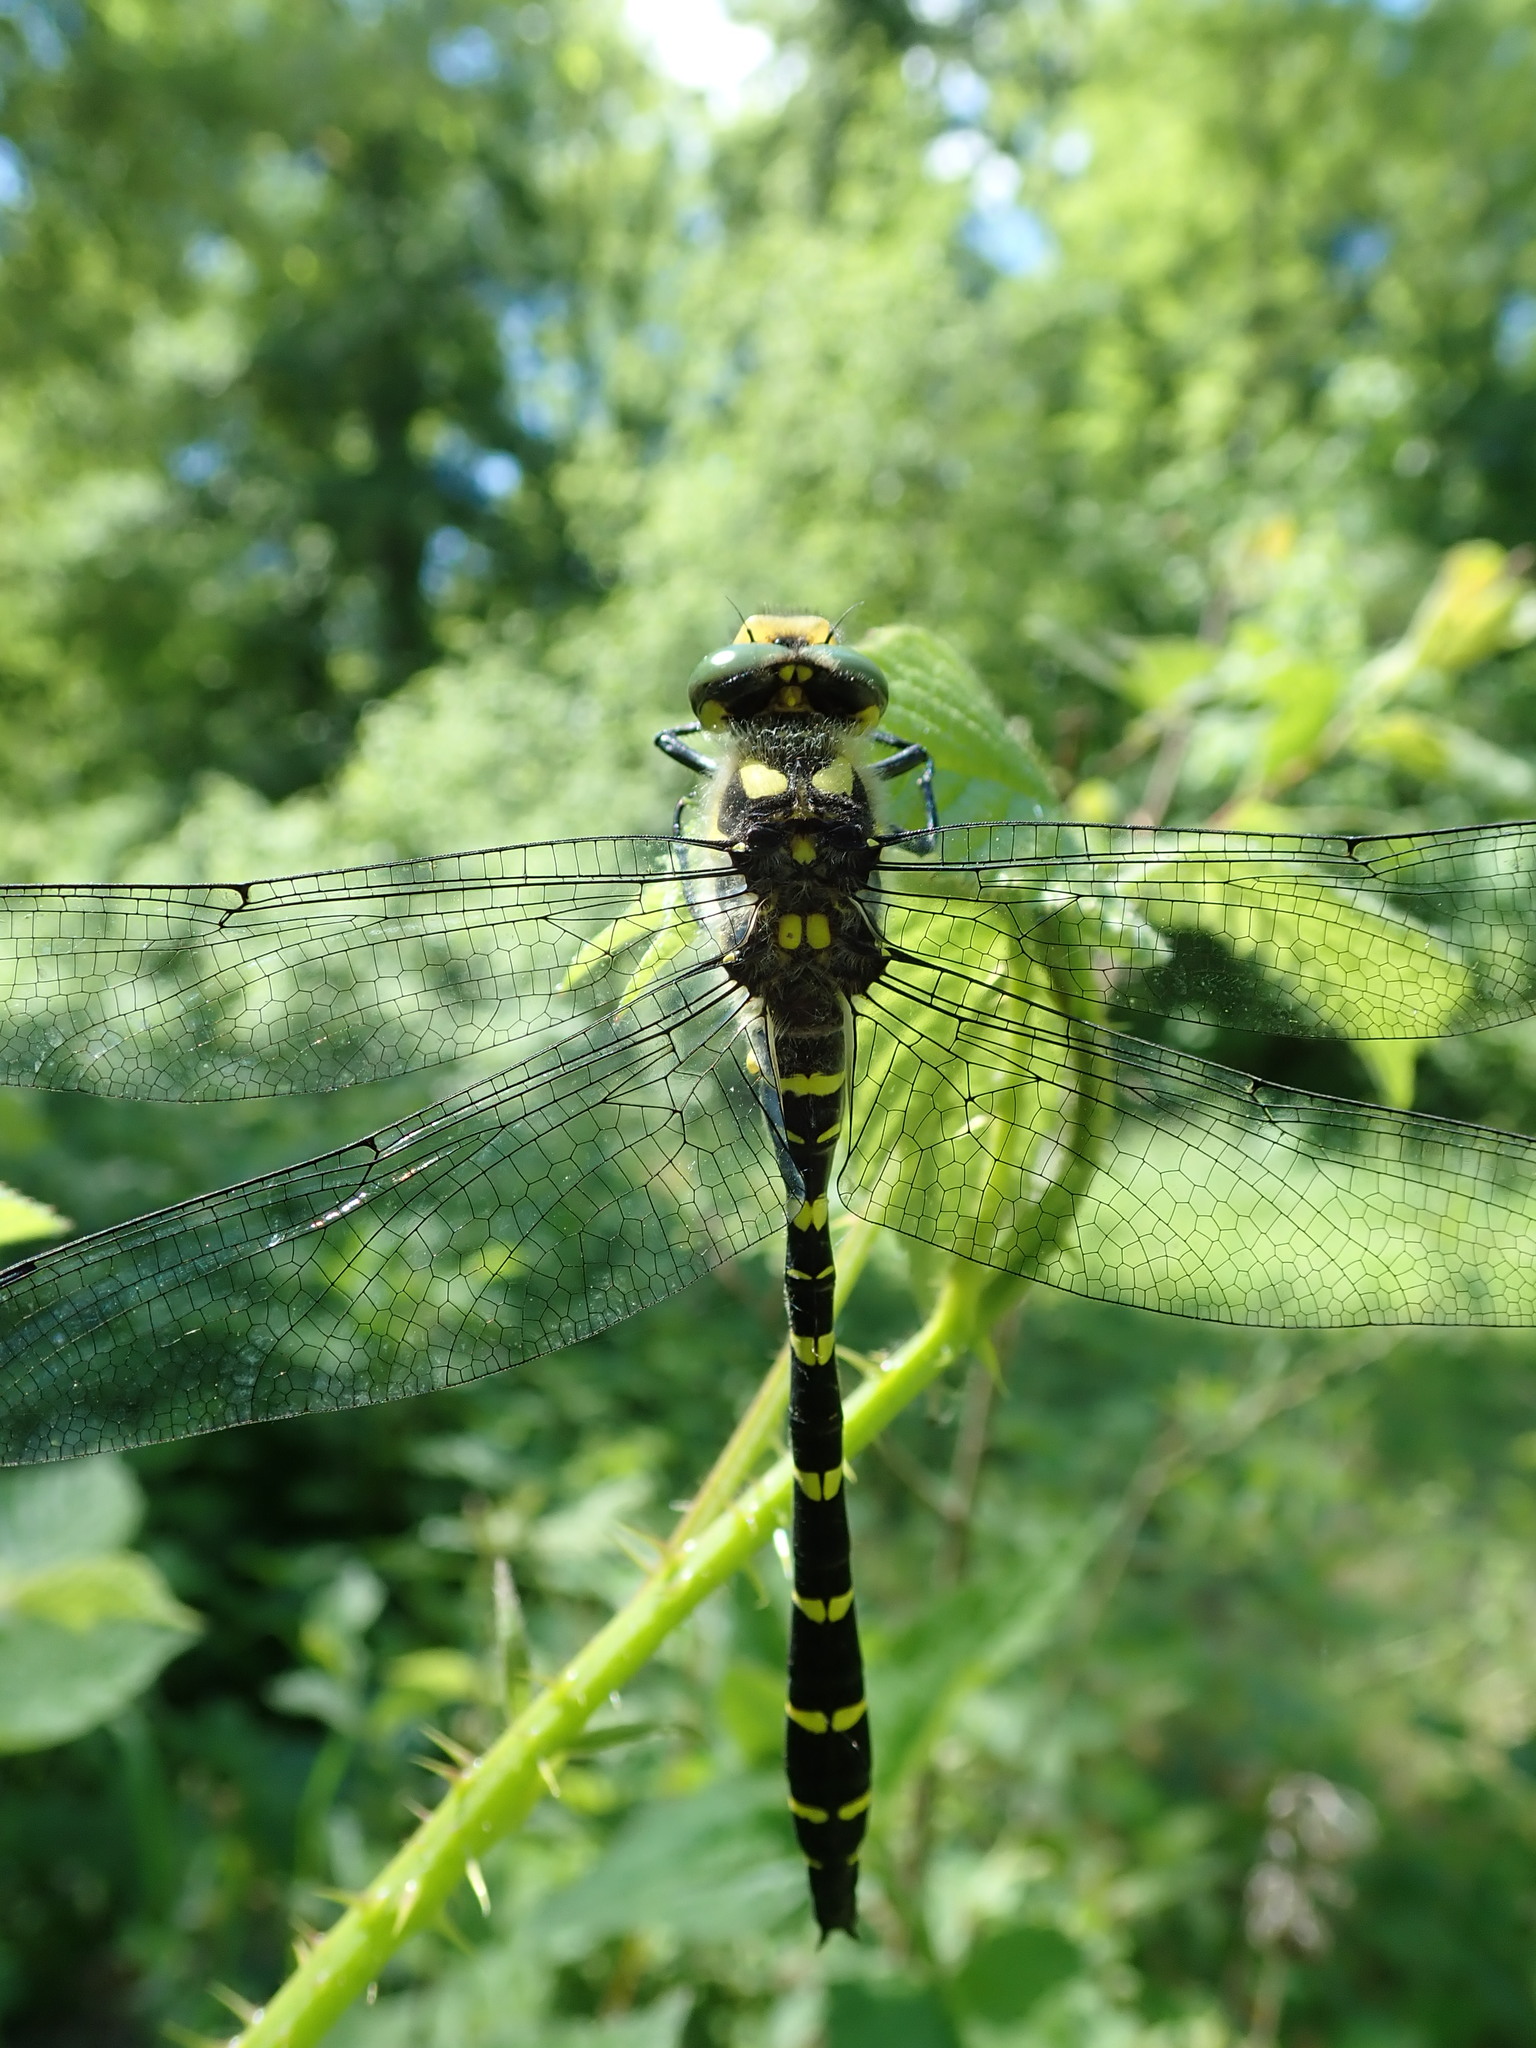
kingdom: Animalia
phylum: Arthropoda
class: Insecta
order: Odonata
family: Cordulegastridae
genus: Cordulegaster
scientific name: Cordulegaster bidentata
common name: Sombre goldenring
